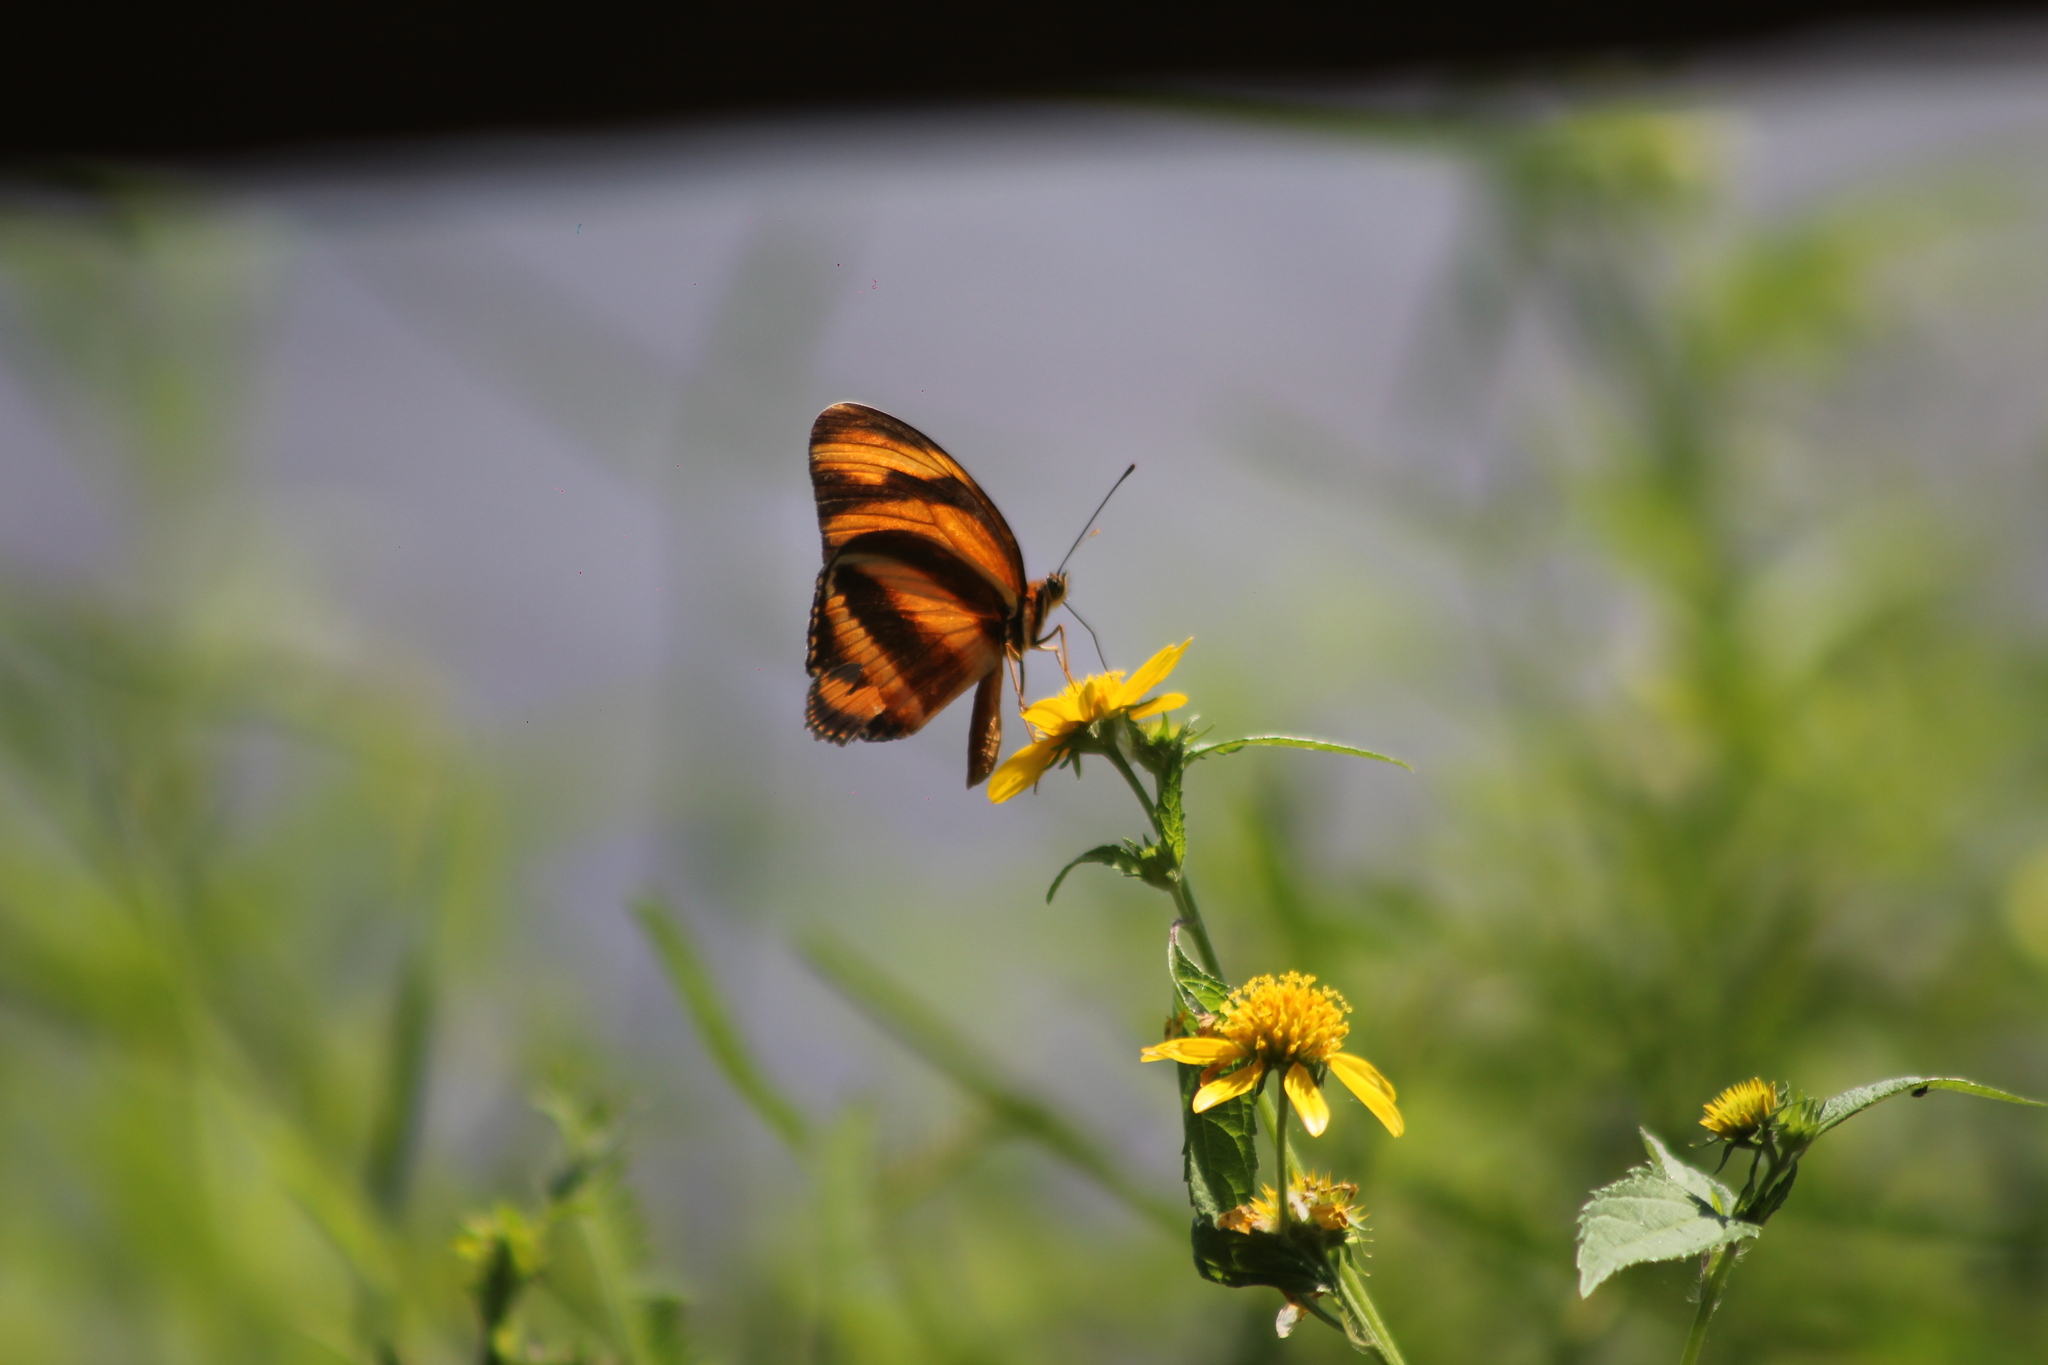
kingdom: Animalia
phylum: Arthropoda
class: Insecta
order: Lepidoptera
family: Nymphalidae
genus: Dryadula
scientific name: Dryadula phaetusa
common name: Banded orange heliconian
